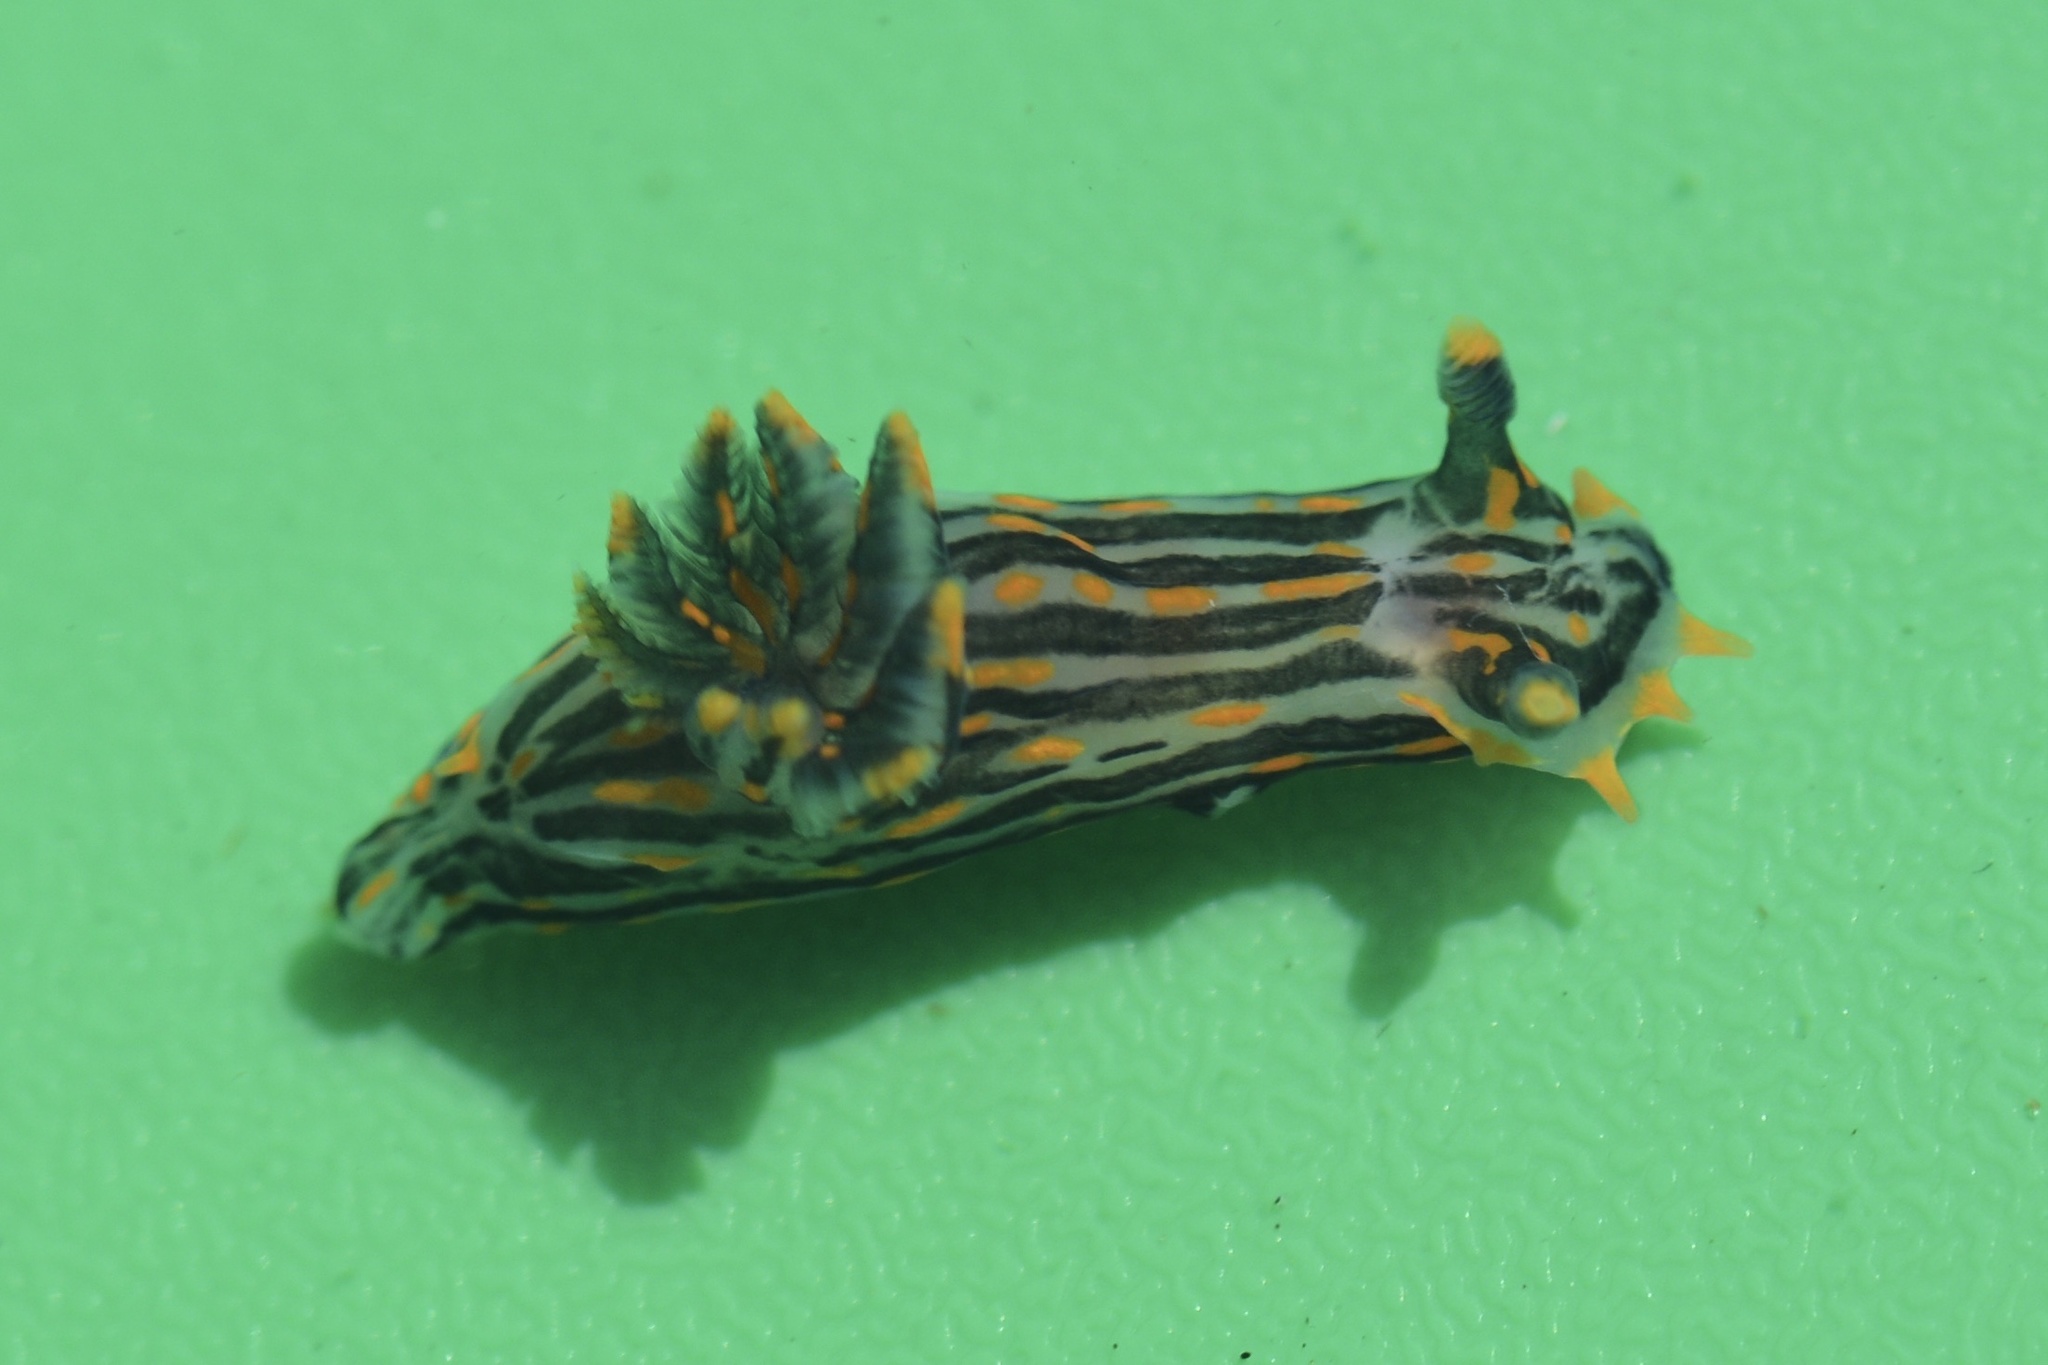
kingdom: Animalia
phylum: Mollusca
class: Gastropoda
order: Nudibranchia
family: Polyceridae
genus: Polycera
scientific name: Polycera atra
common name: Orange-spike polycera
